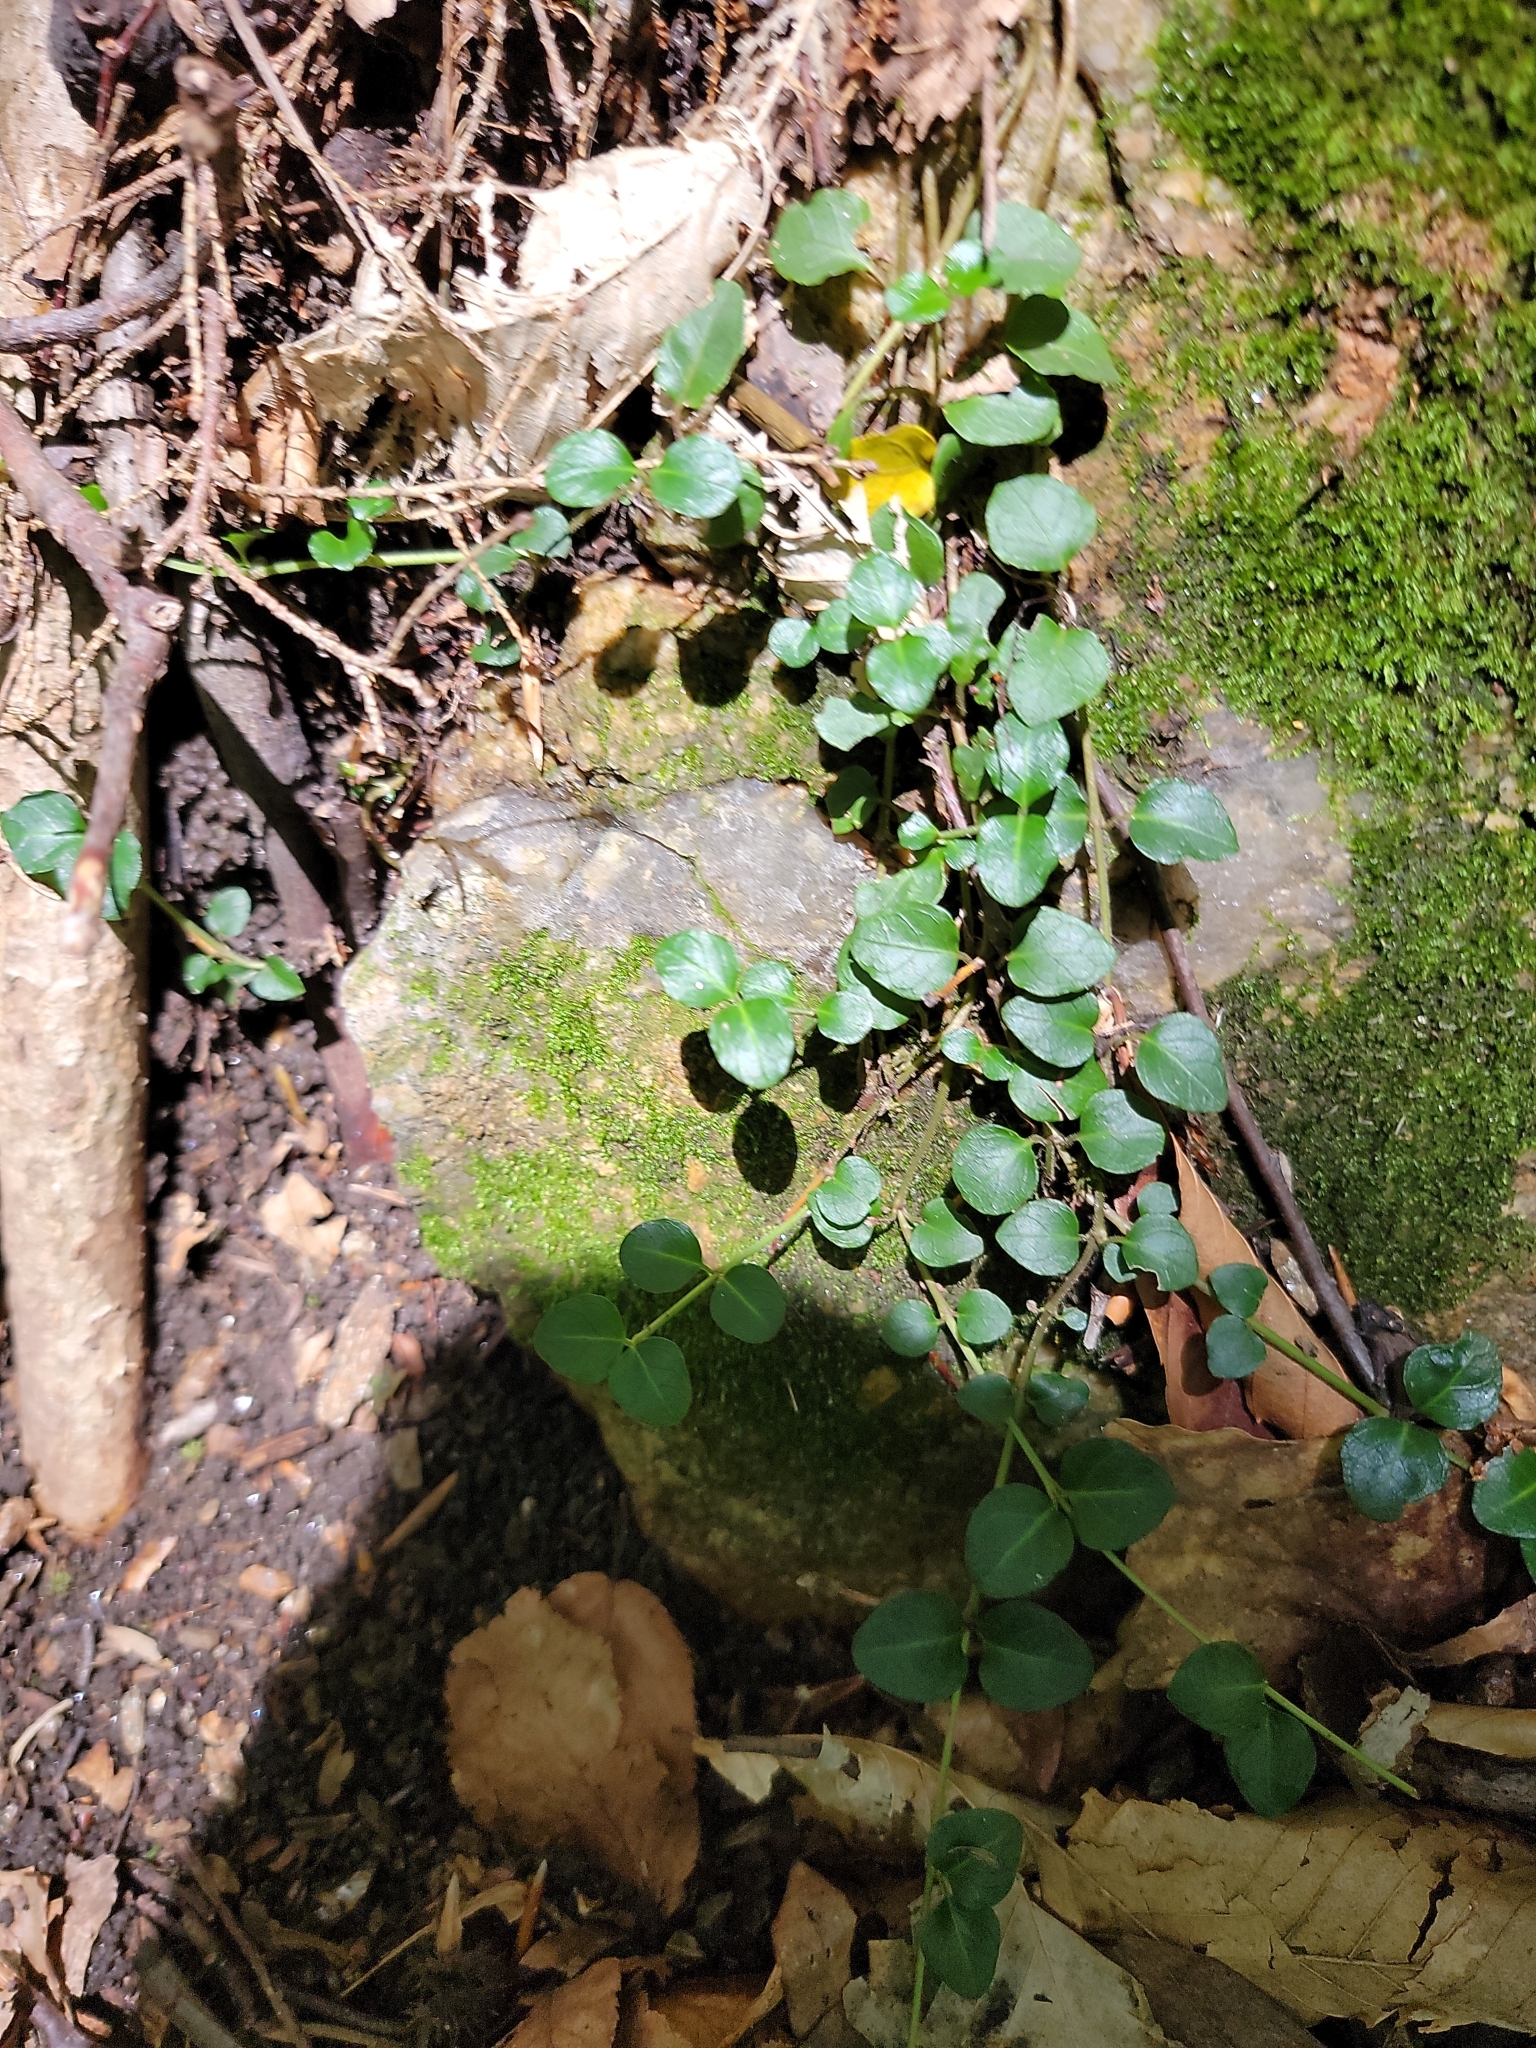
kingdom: Plantae
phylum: Tracheophyta
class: Magnoliopsida
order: Gentianales
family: Rubiaceae
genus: Mitchella
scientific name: Mitchella repens
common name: Partridge-berry
